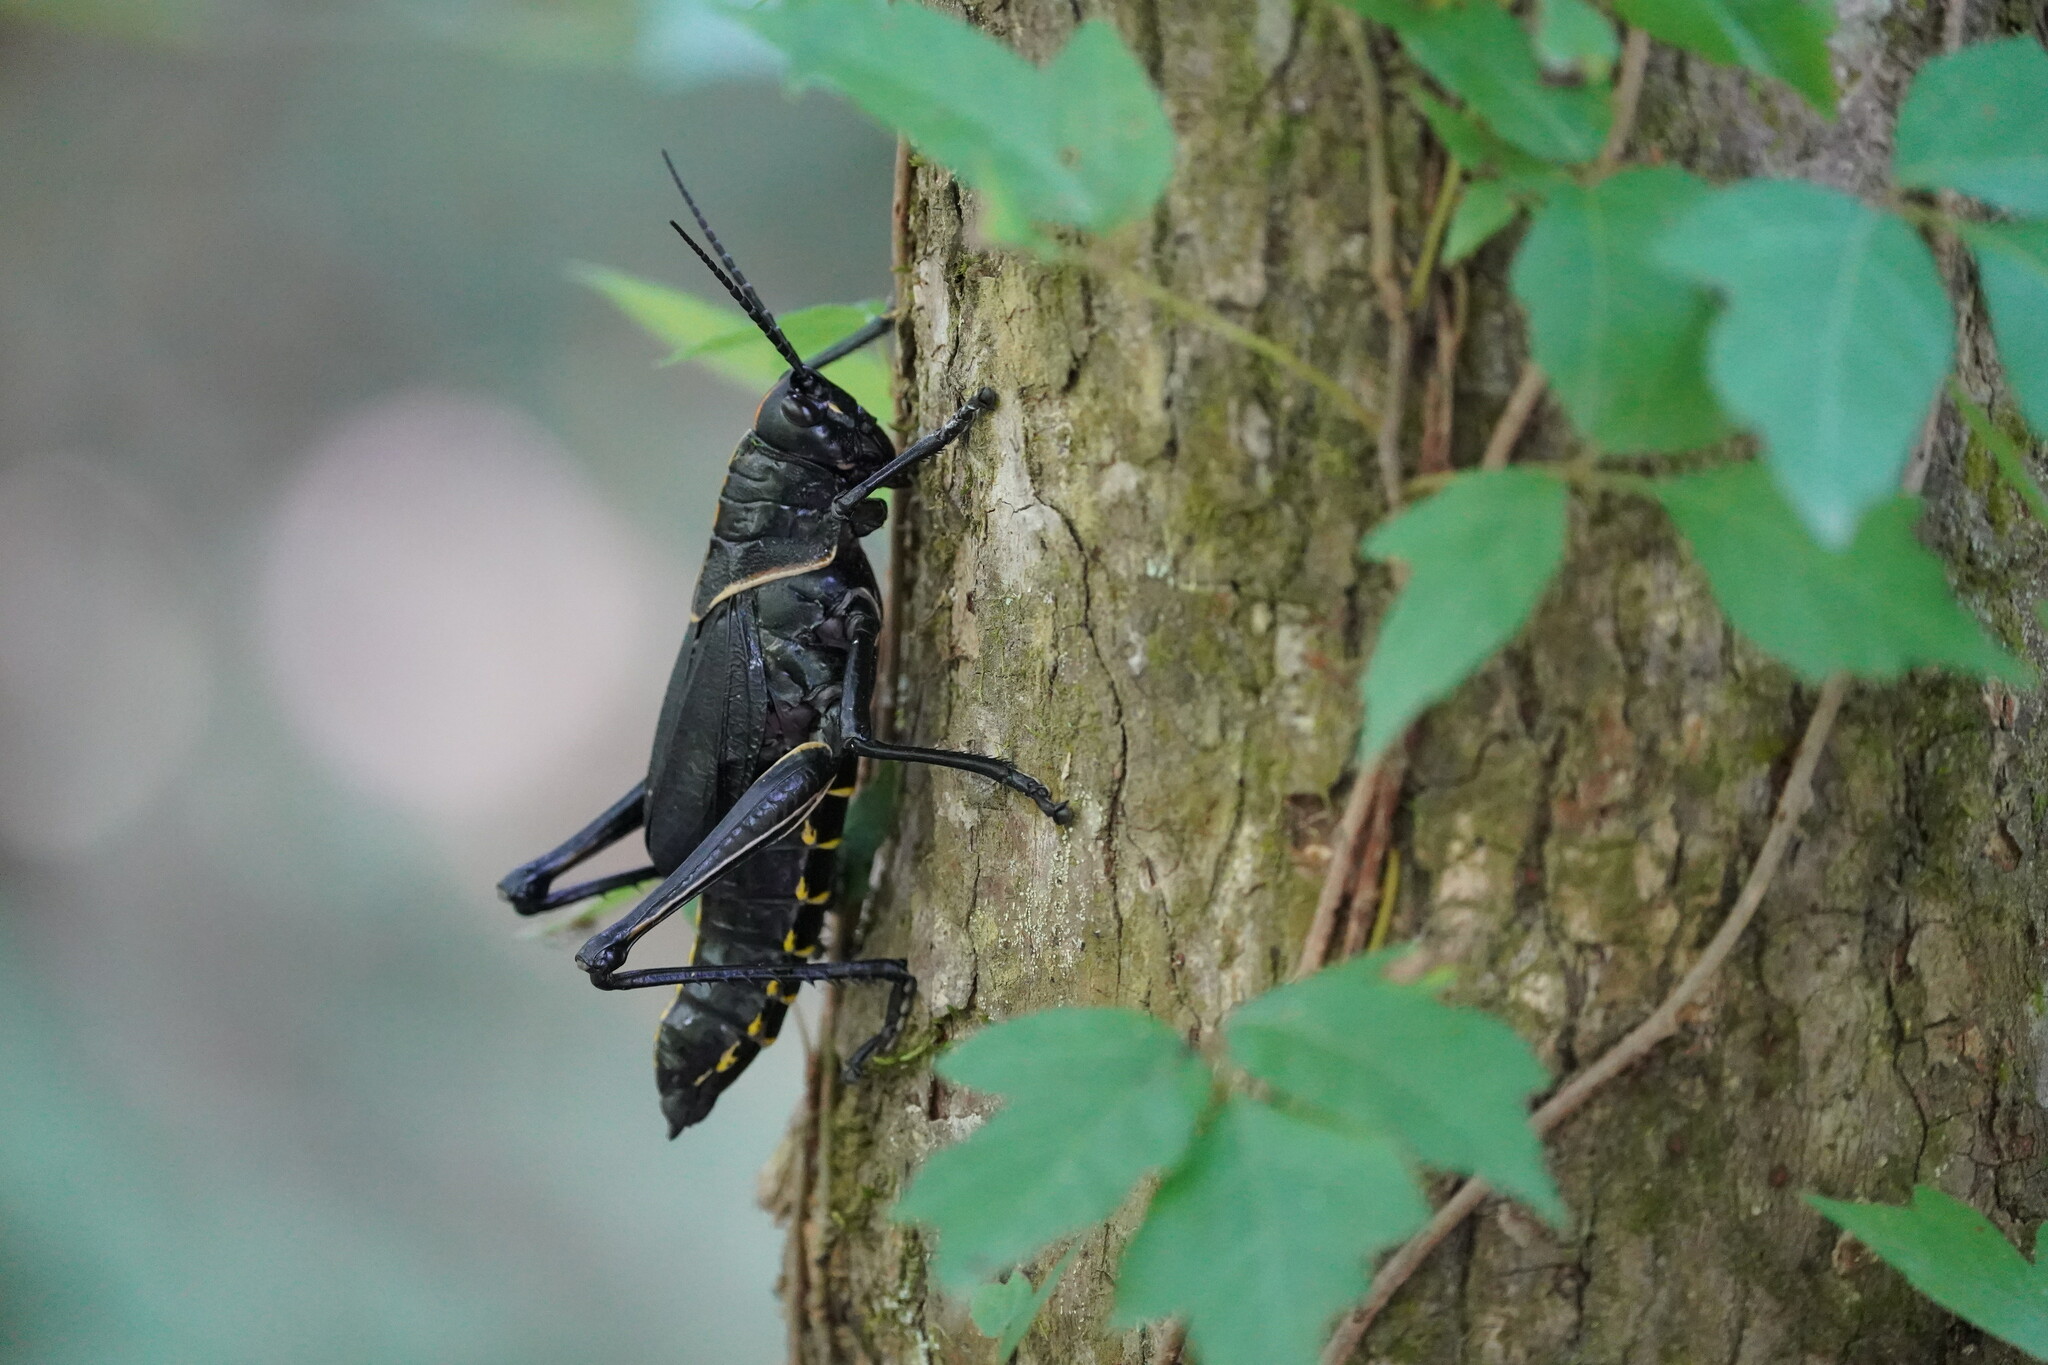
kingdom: Animalia
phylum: Arthropoda
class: Insecta
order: Orthoptera
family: Romaleidae
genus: Romalea
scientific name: Romalea microptera
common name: Eastern lubber grasshopper
